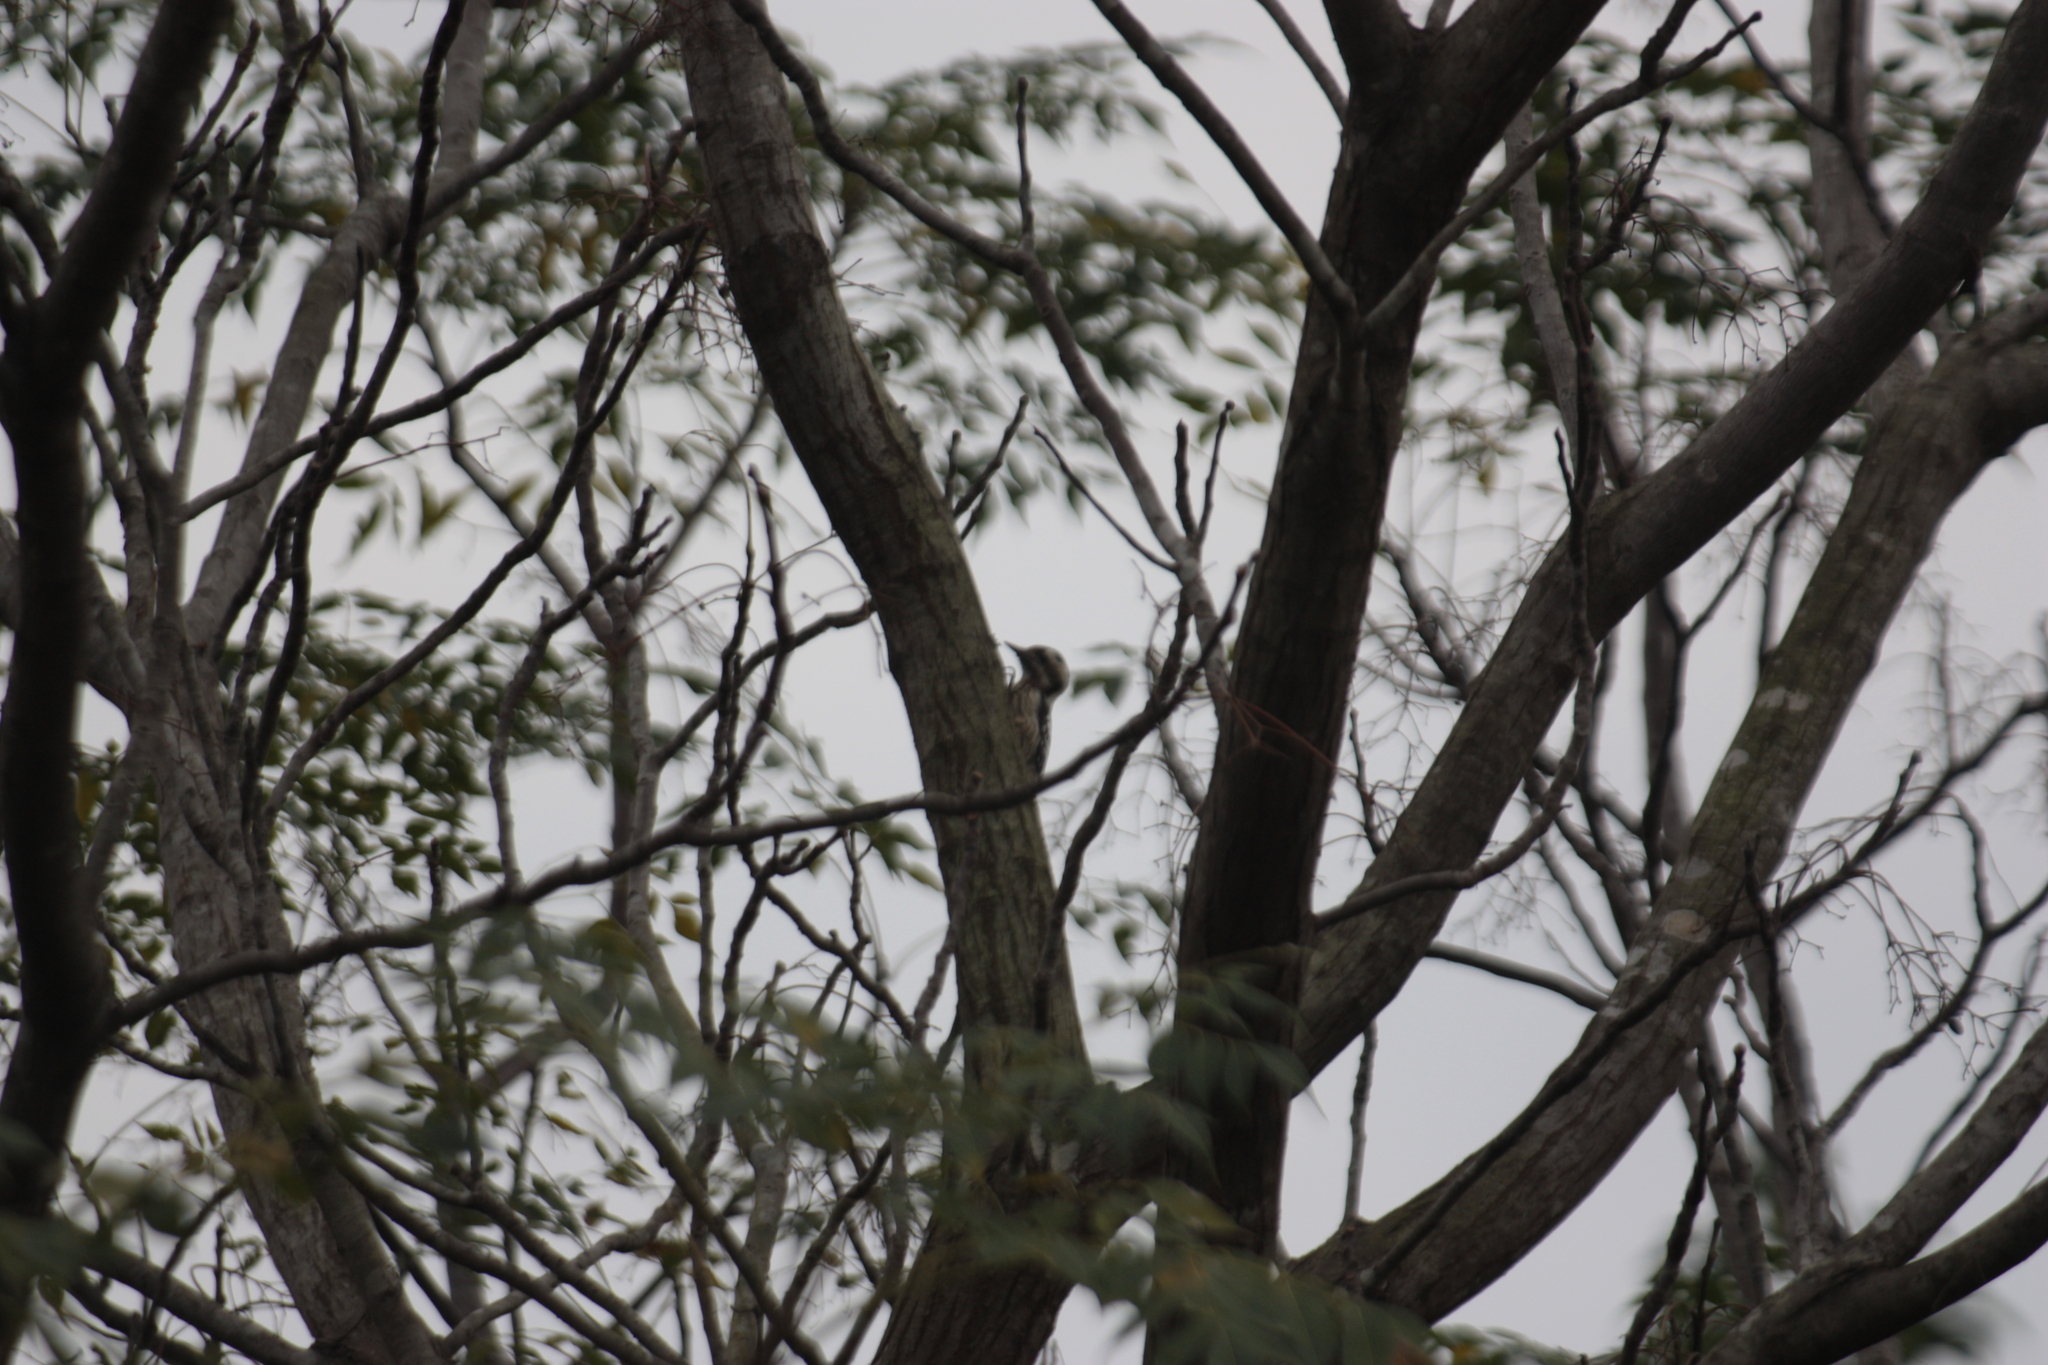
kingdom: Animalia
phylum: Chordata
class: Aves
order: Piciformes
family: Picidae
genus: Yungipicus
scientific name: Yungipicus canicapillus
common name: Grey-capped pygmy woodpecker
